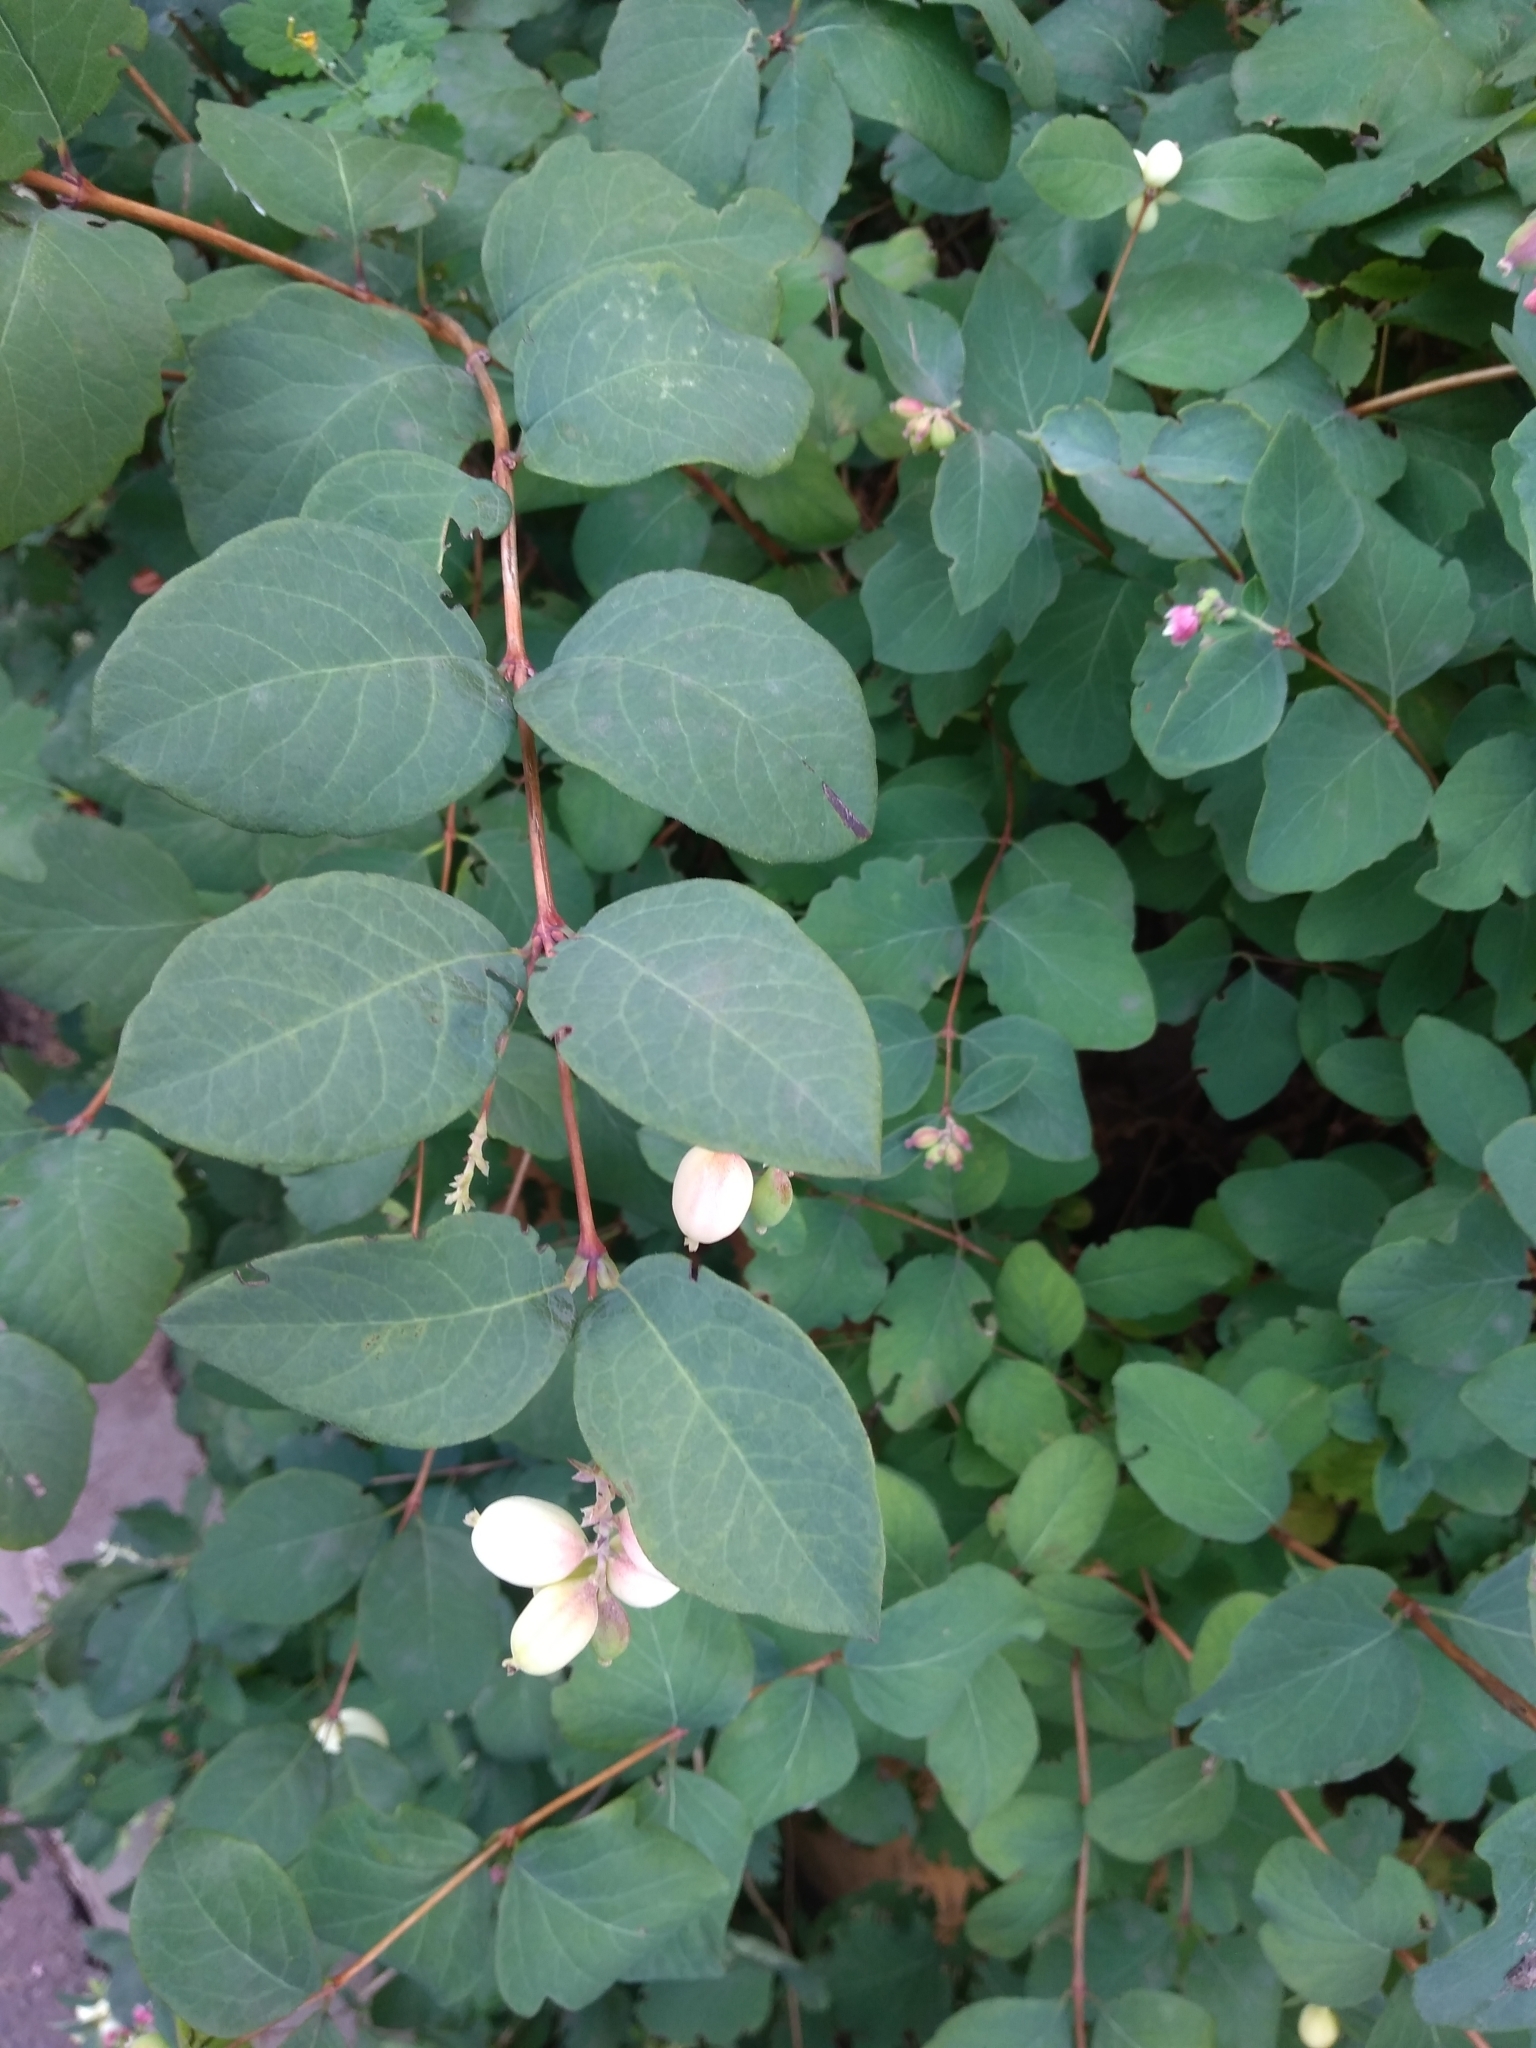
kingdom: Plantae
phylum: Tracheophyta
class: Magnoliopsida
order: Dipsacales
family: Caprifoliaceae
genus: Symphoricarpos
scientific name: Symphoricarpos albus
